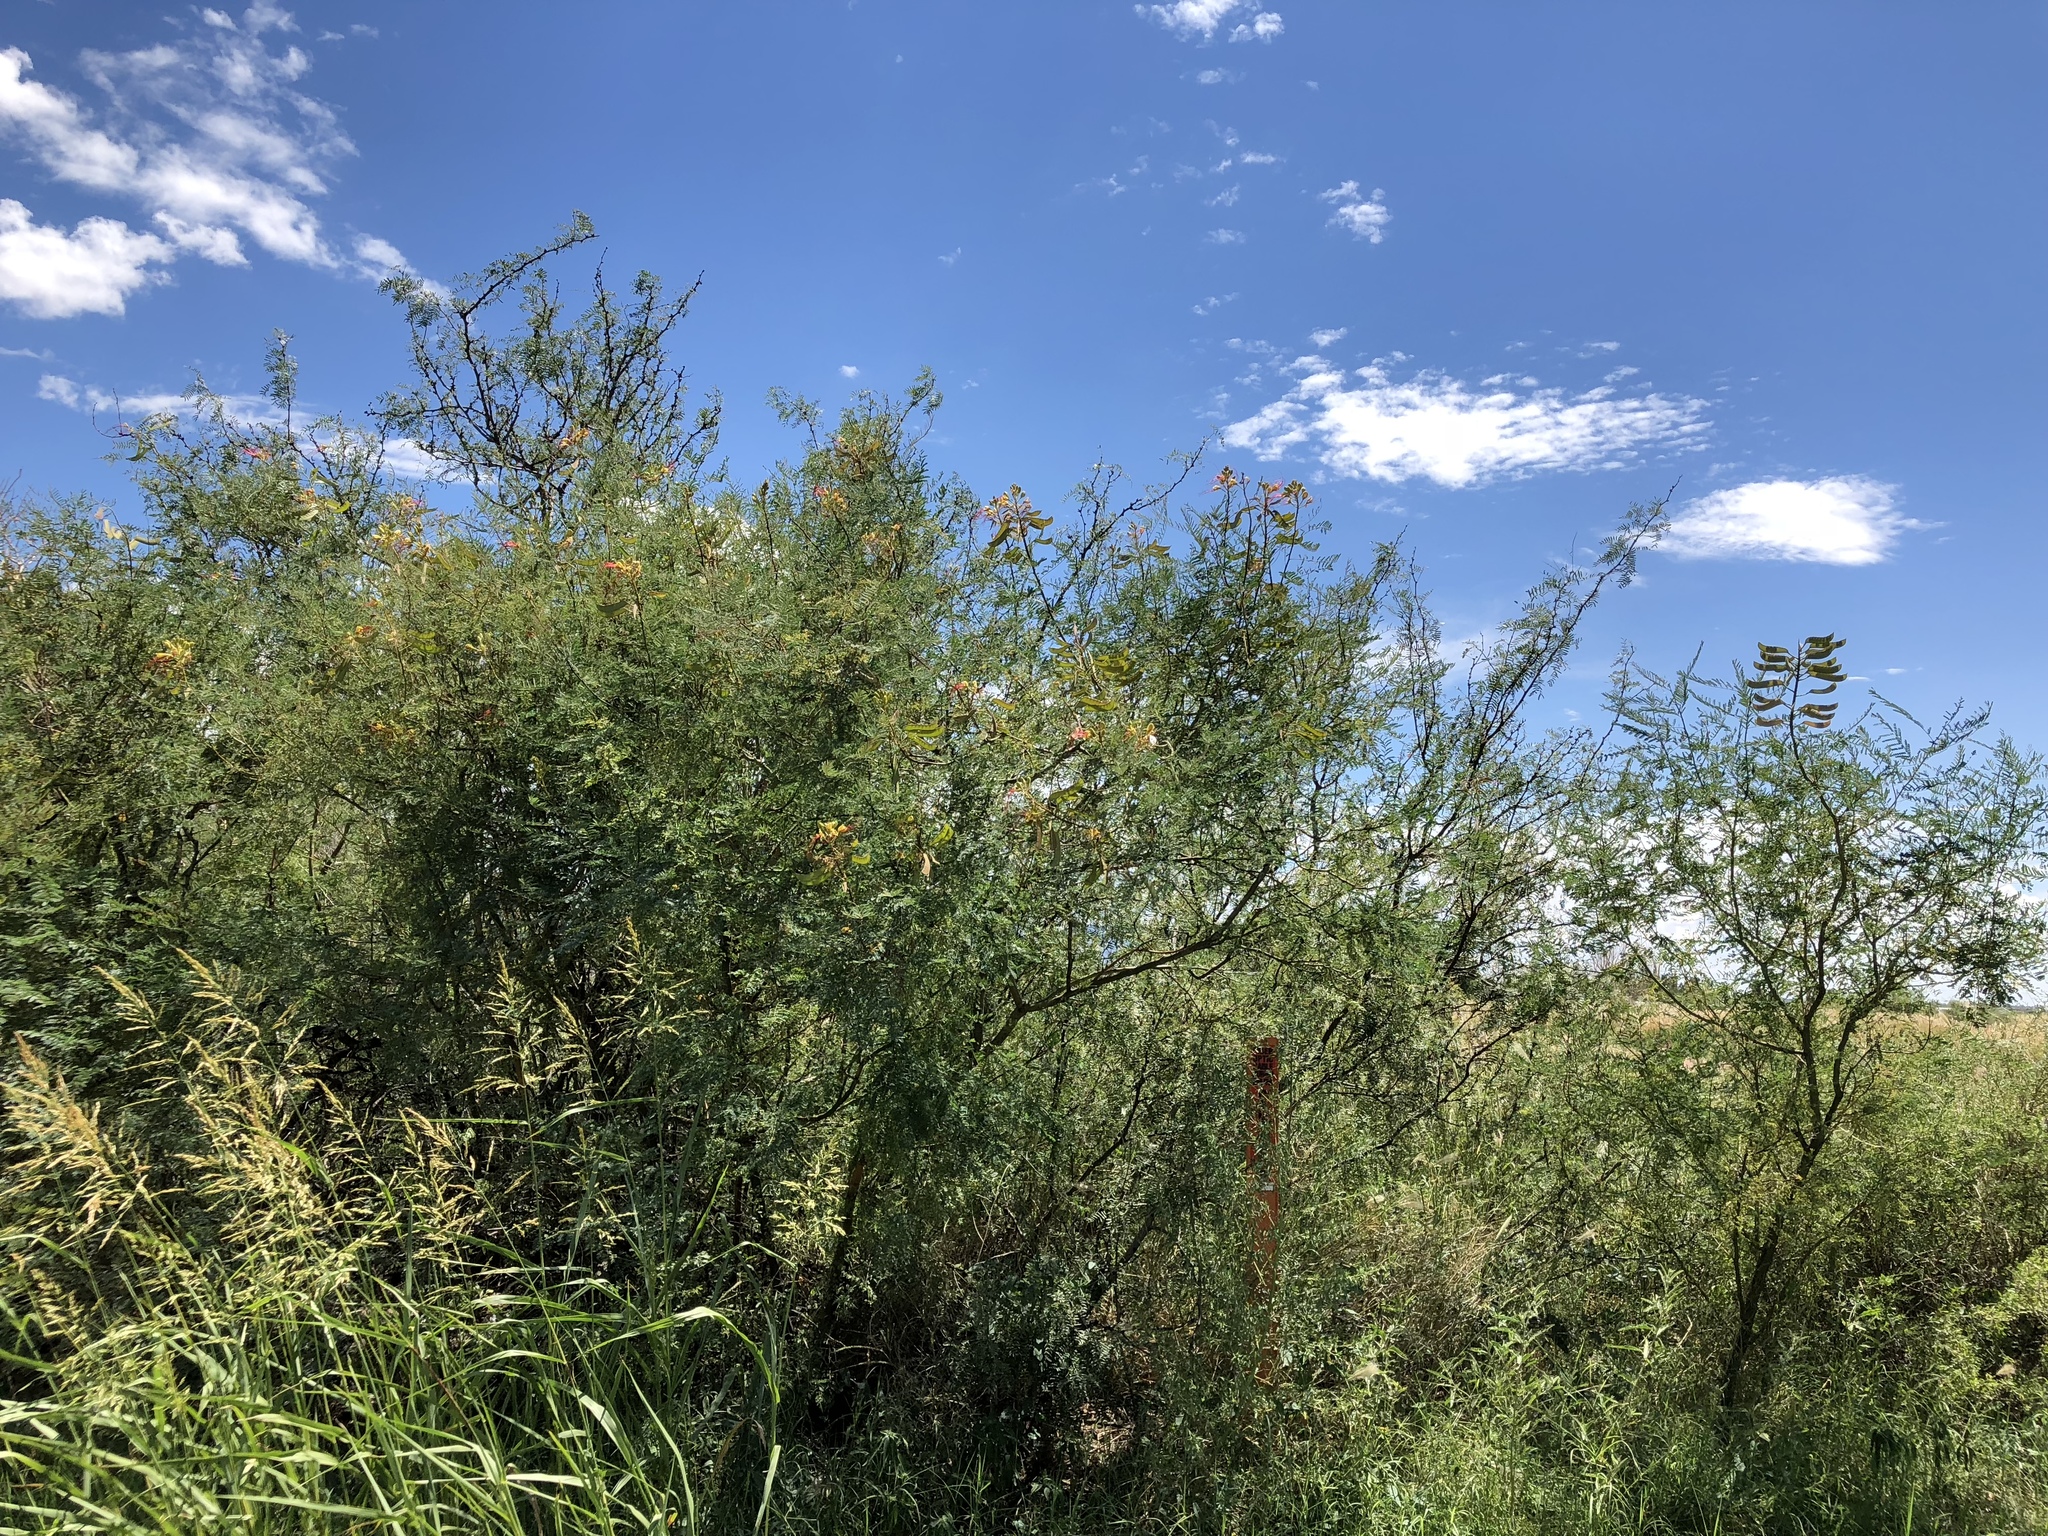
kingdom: Plantae
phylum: Tracheophyta
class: Magnoliopsida
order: Fabales
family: Fabaceae
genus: Erythrostemon
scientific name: Erythrostemon gilliesii
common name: Bird-of-paradise shrub
